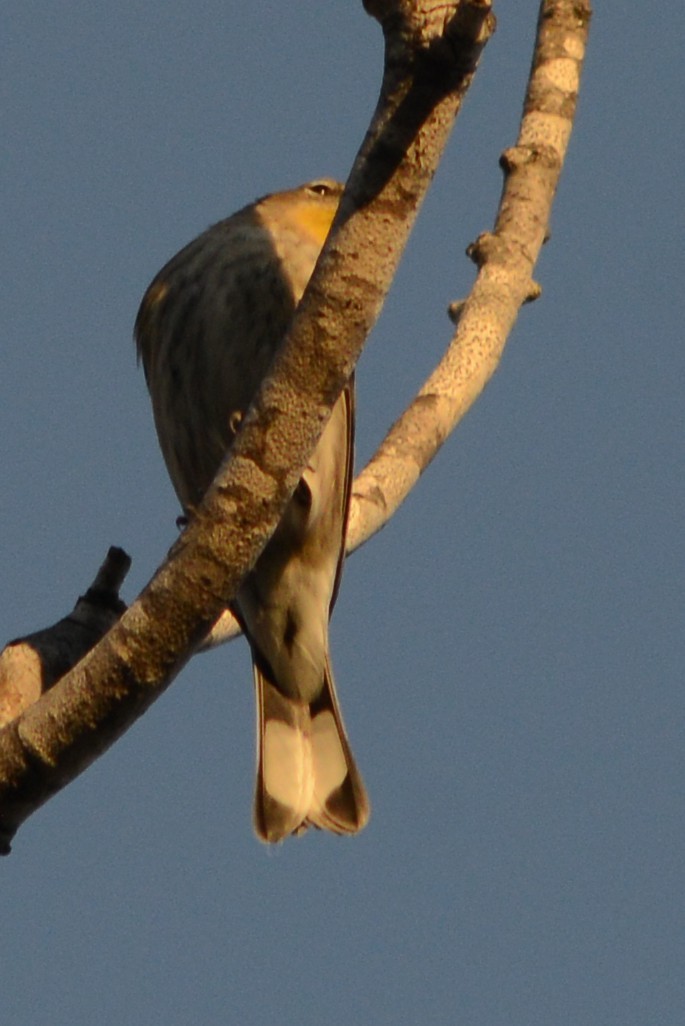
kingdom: Animalia
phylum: Chordata
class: Aves
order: Passeriformes
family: Parulidae
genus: Setophaga
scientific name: Setophaga auduboni
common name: Audubon's warbler
